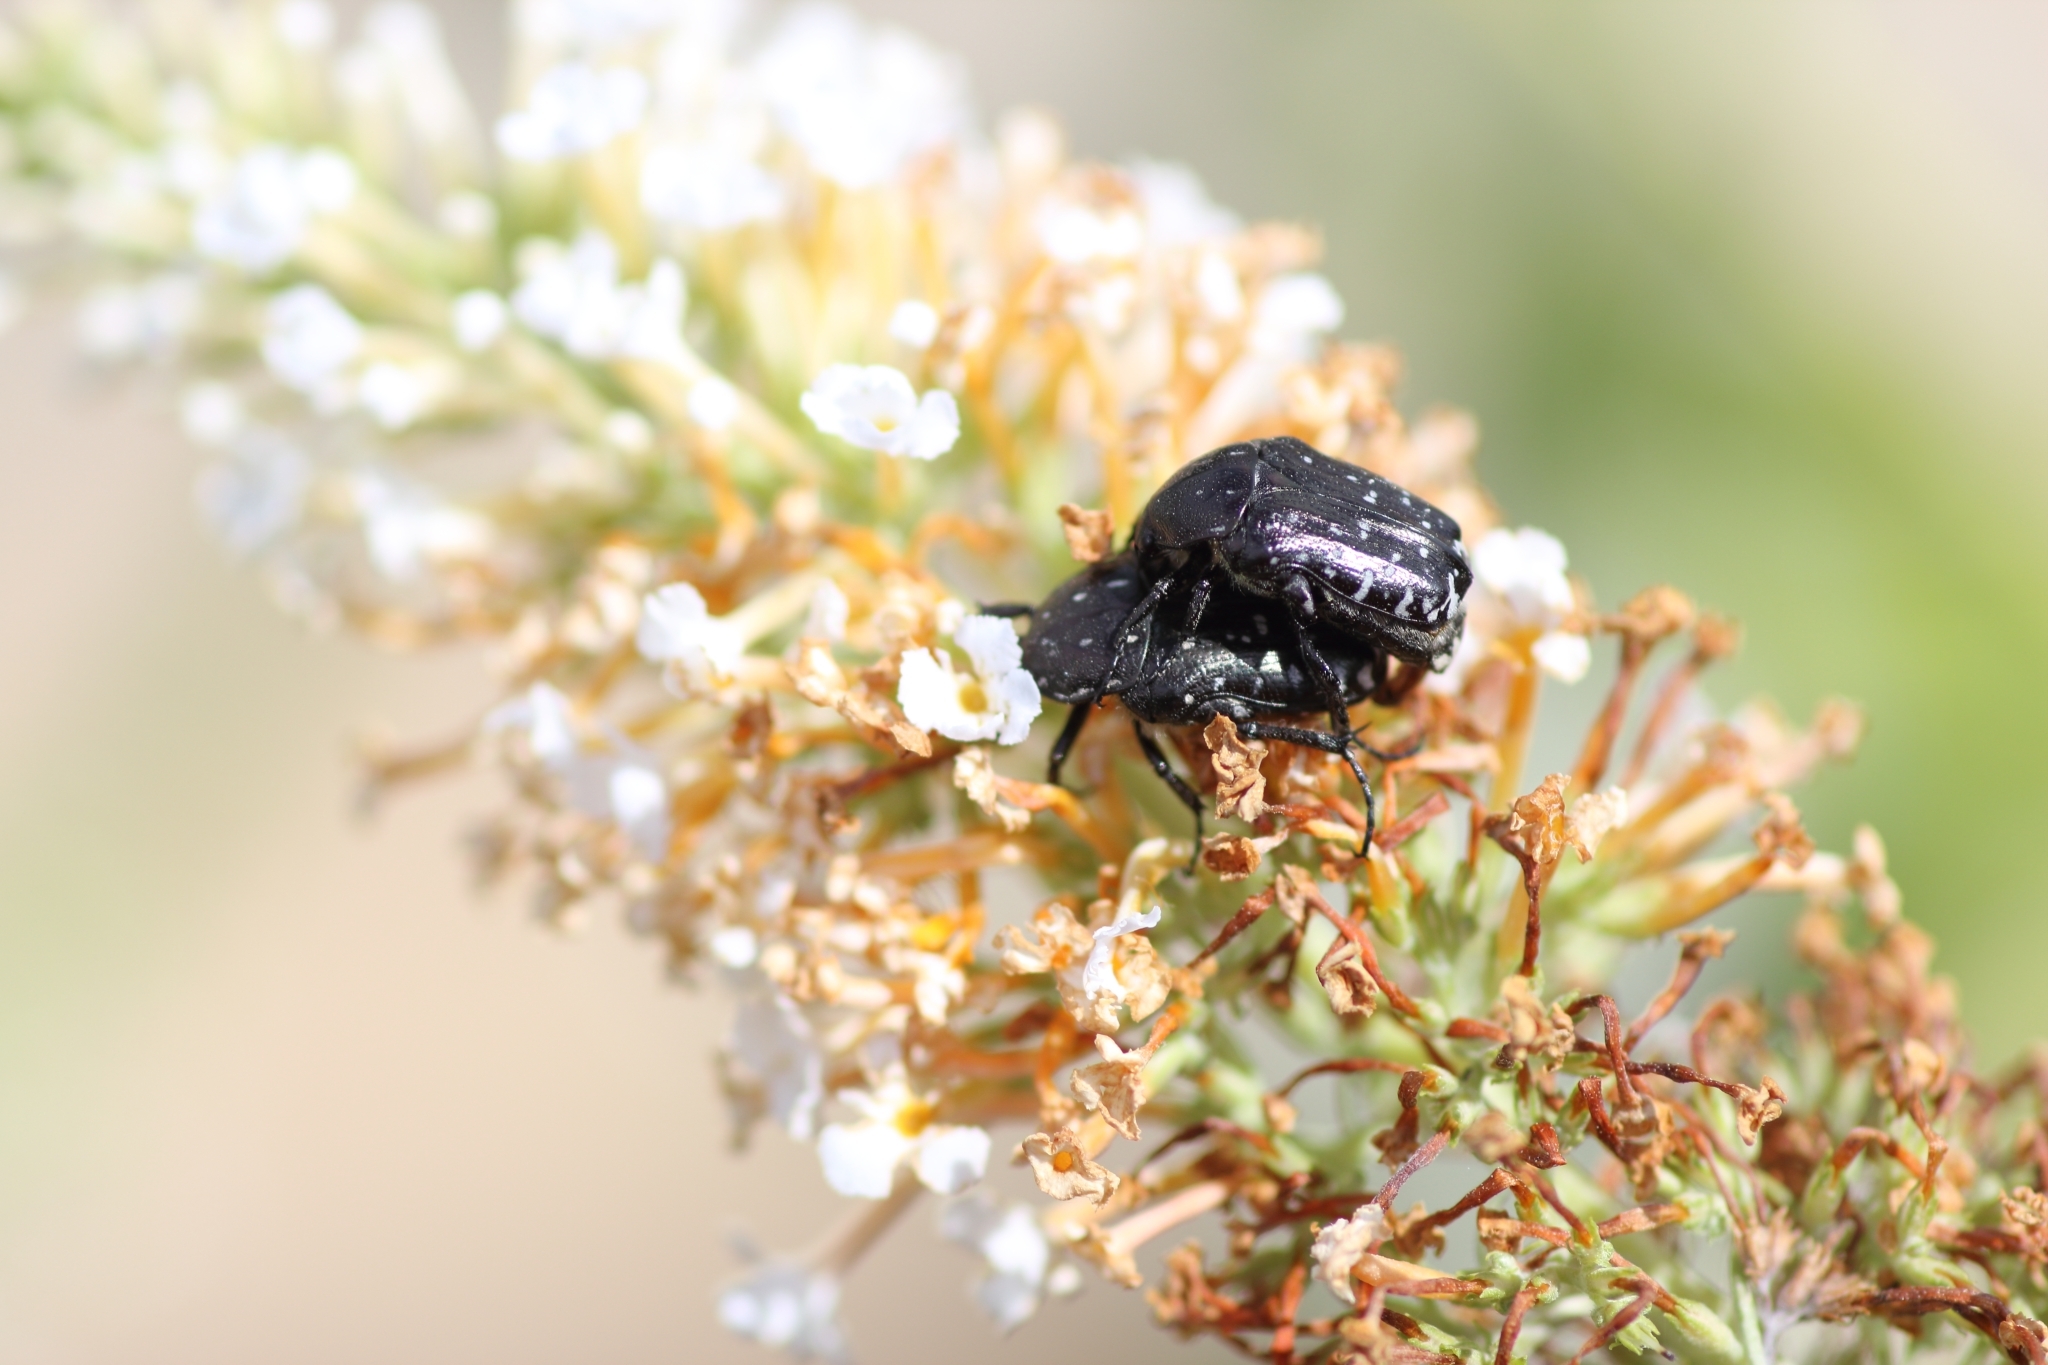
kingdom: Animalia
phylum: Arthropoda
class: Insecta
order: Coleoptera
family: Scarabaeidae
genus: Oxythyrea
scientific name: Oxythyrea funesta
